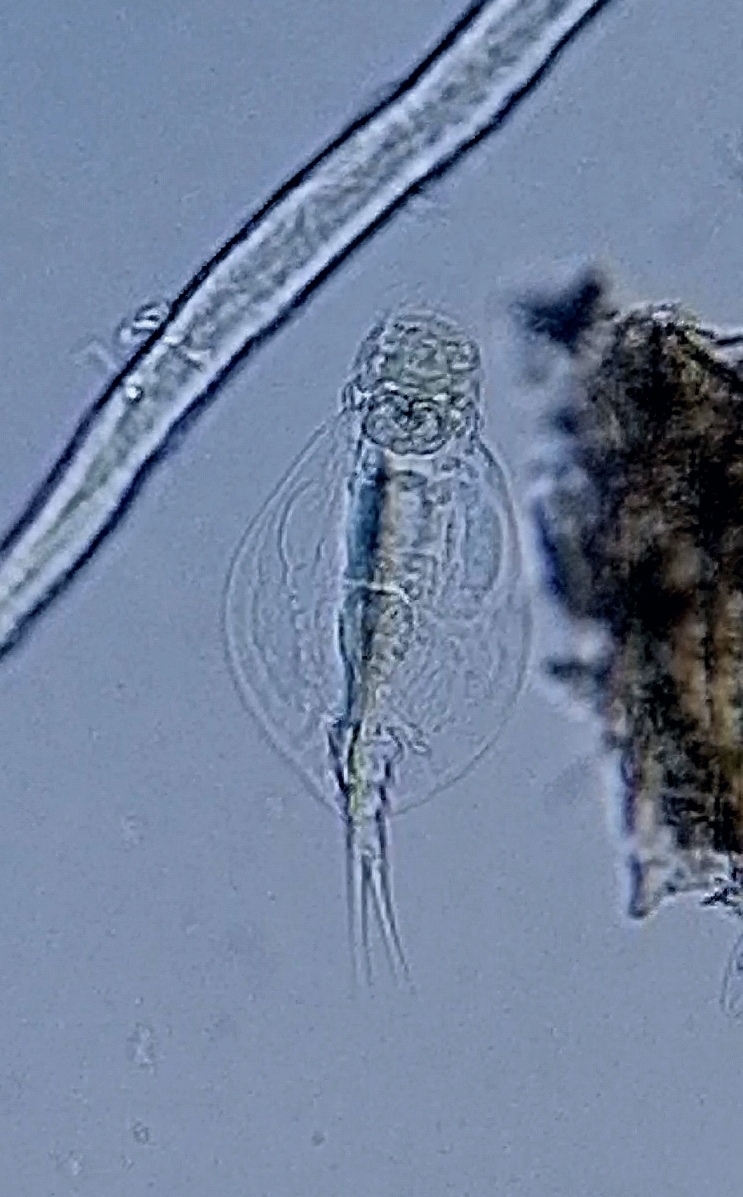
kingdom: Animalia
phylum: Rotifera
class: Eurotatoria
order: Ploima
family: Lepadellidae
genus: Lepadella
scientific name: Lepadella triptera
